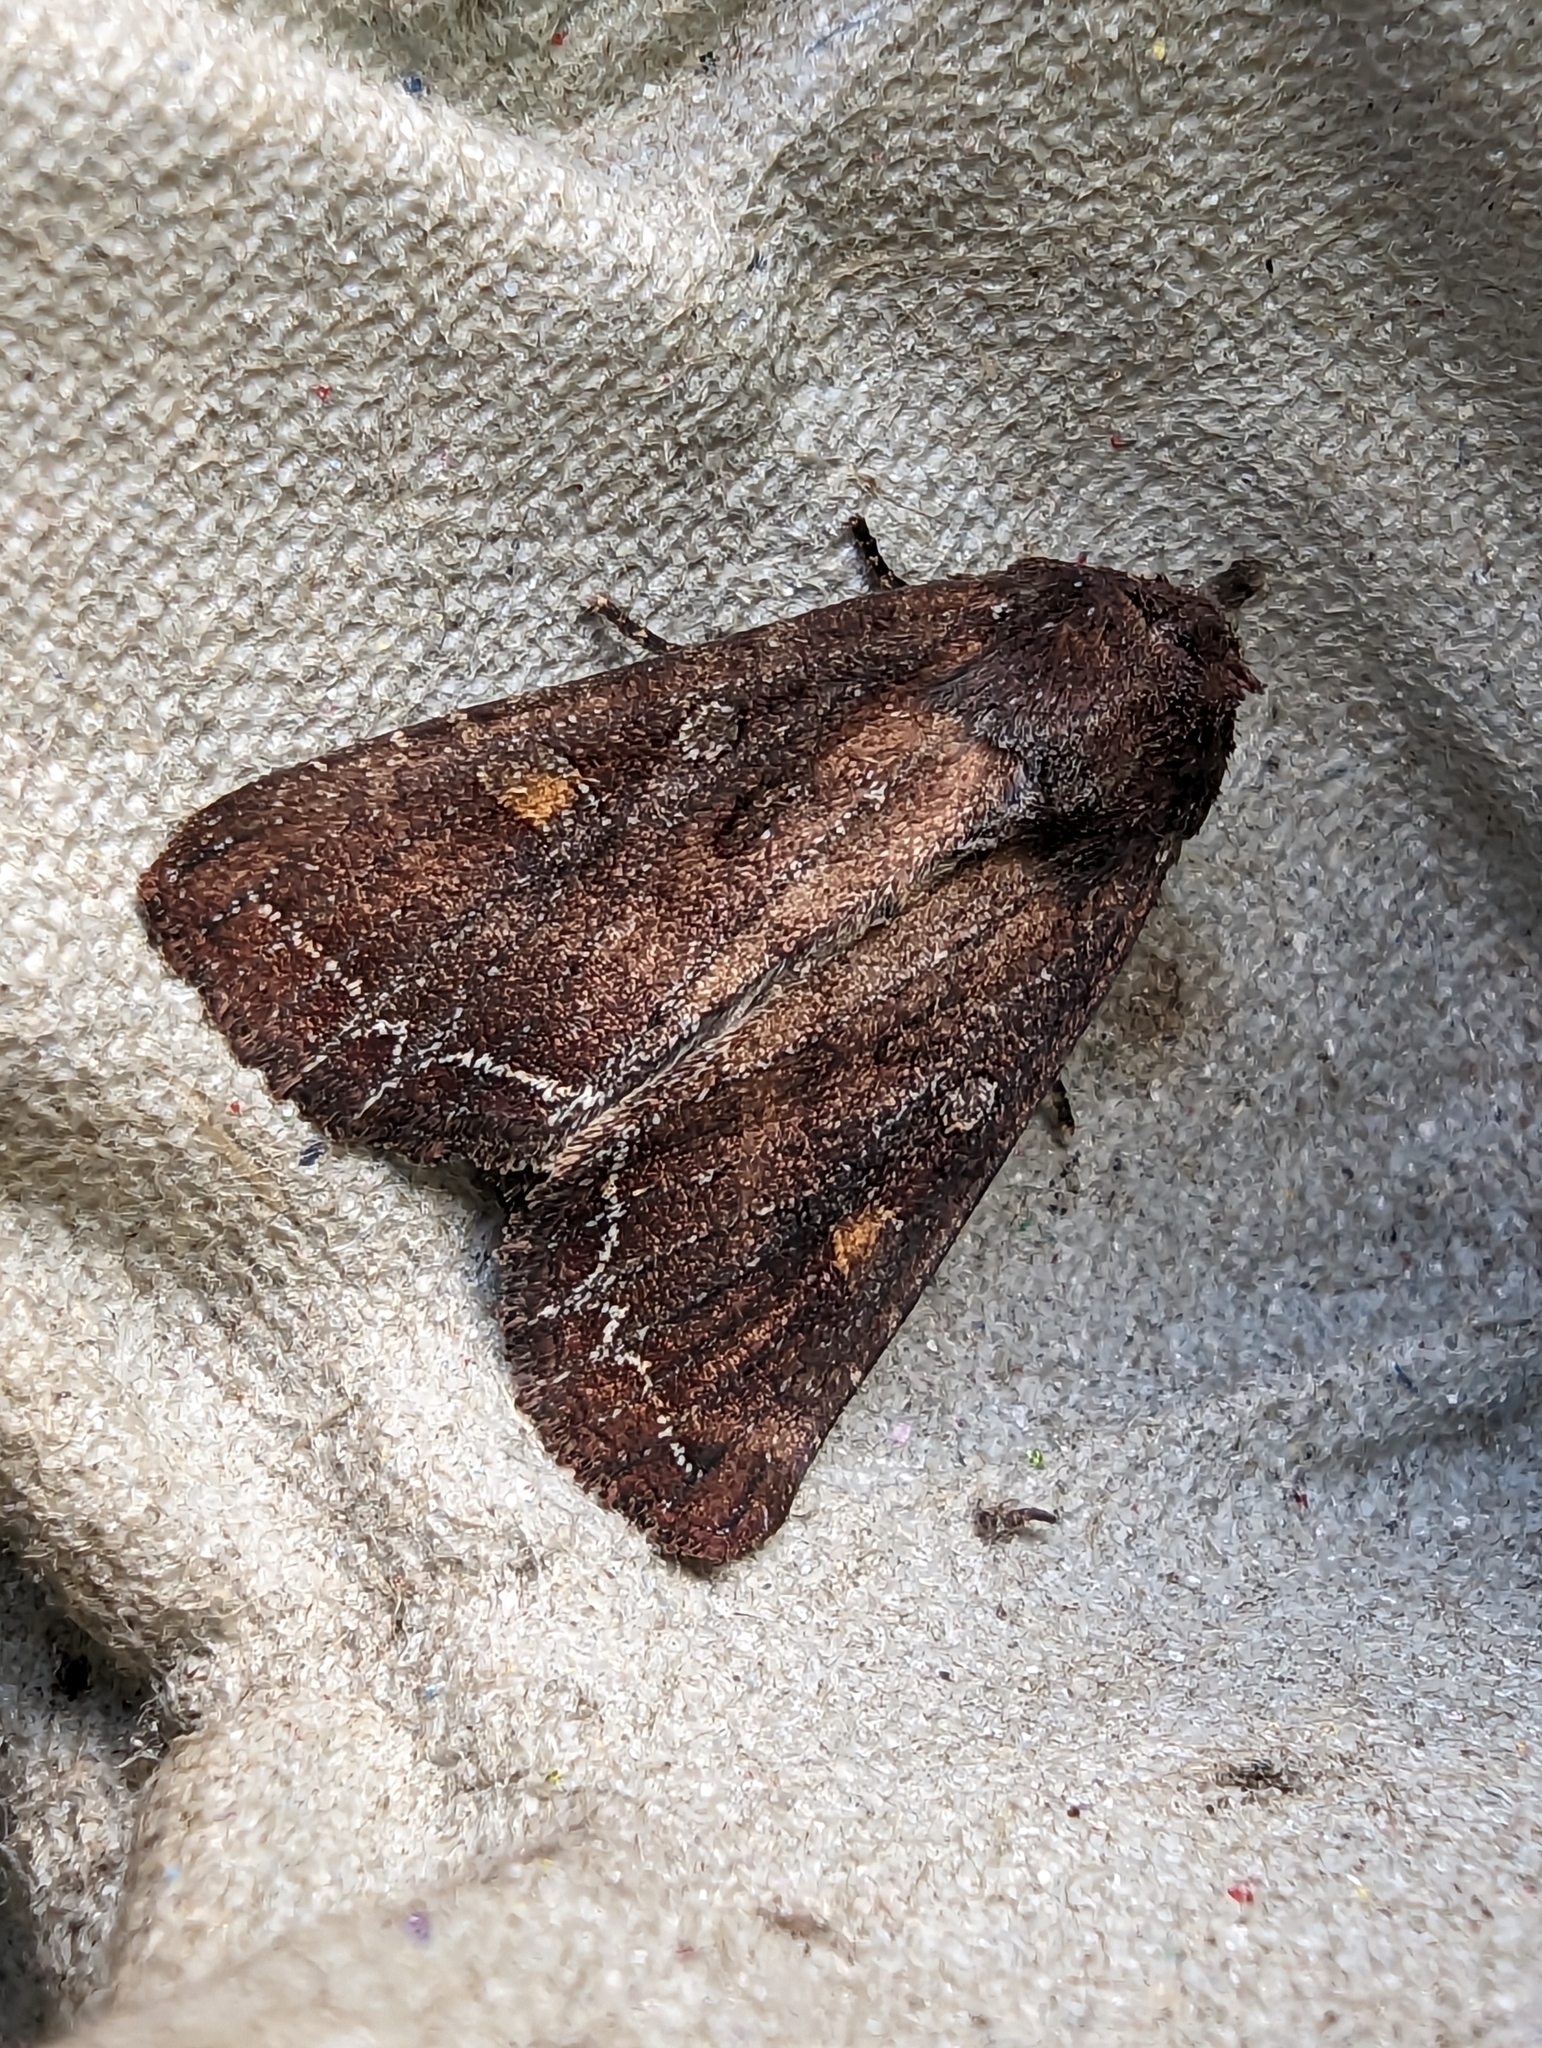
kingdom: Animalia
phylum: Arthropoda
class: Insecta
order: Lepidoptera
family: Noctuidae
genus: Lacanobia
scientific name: Lacanobia oleracea
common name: Bright-line brown-eye
